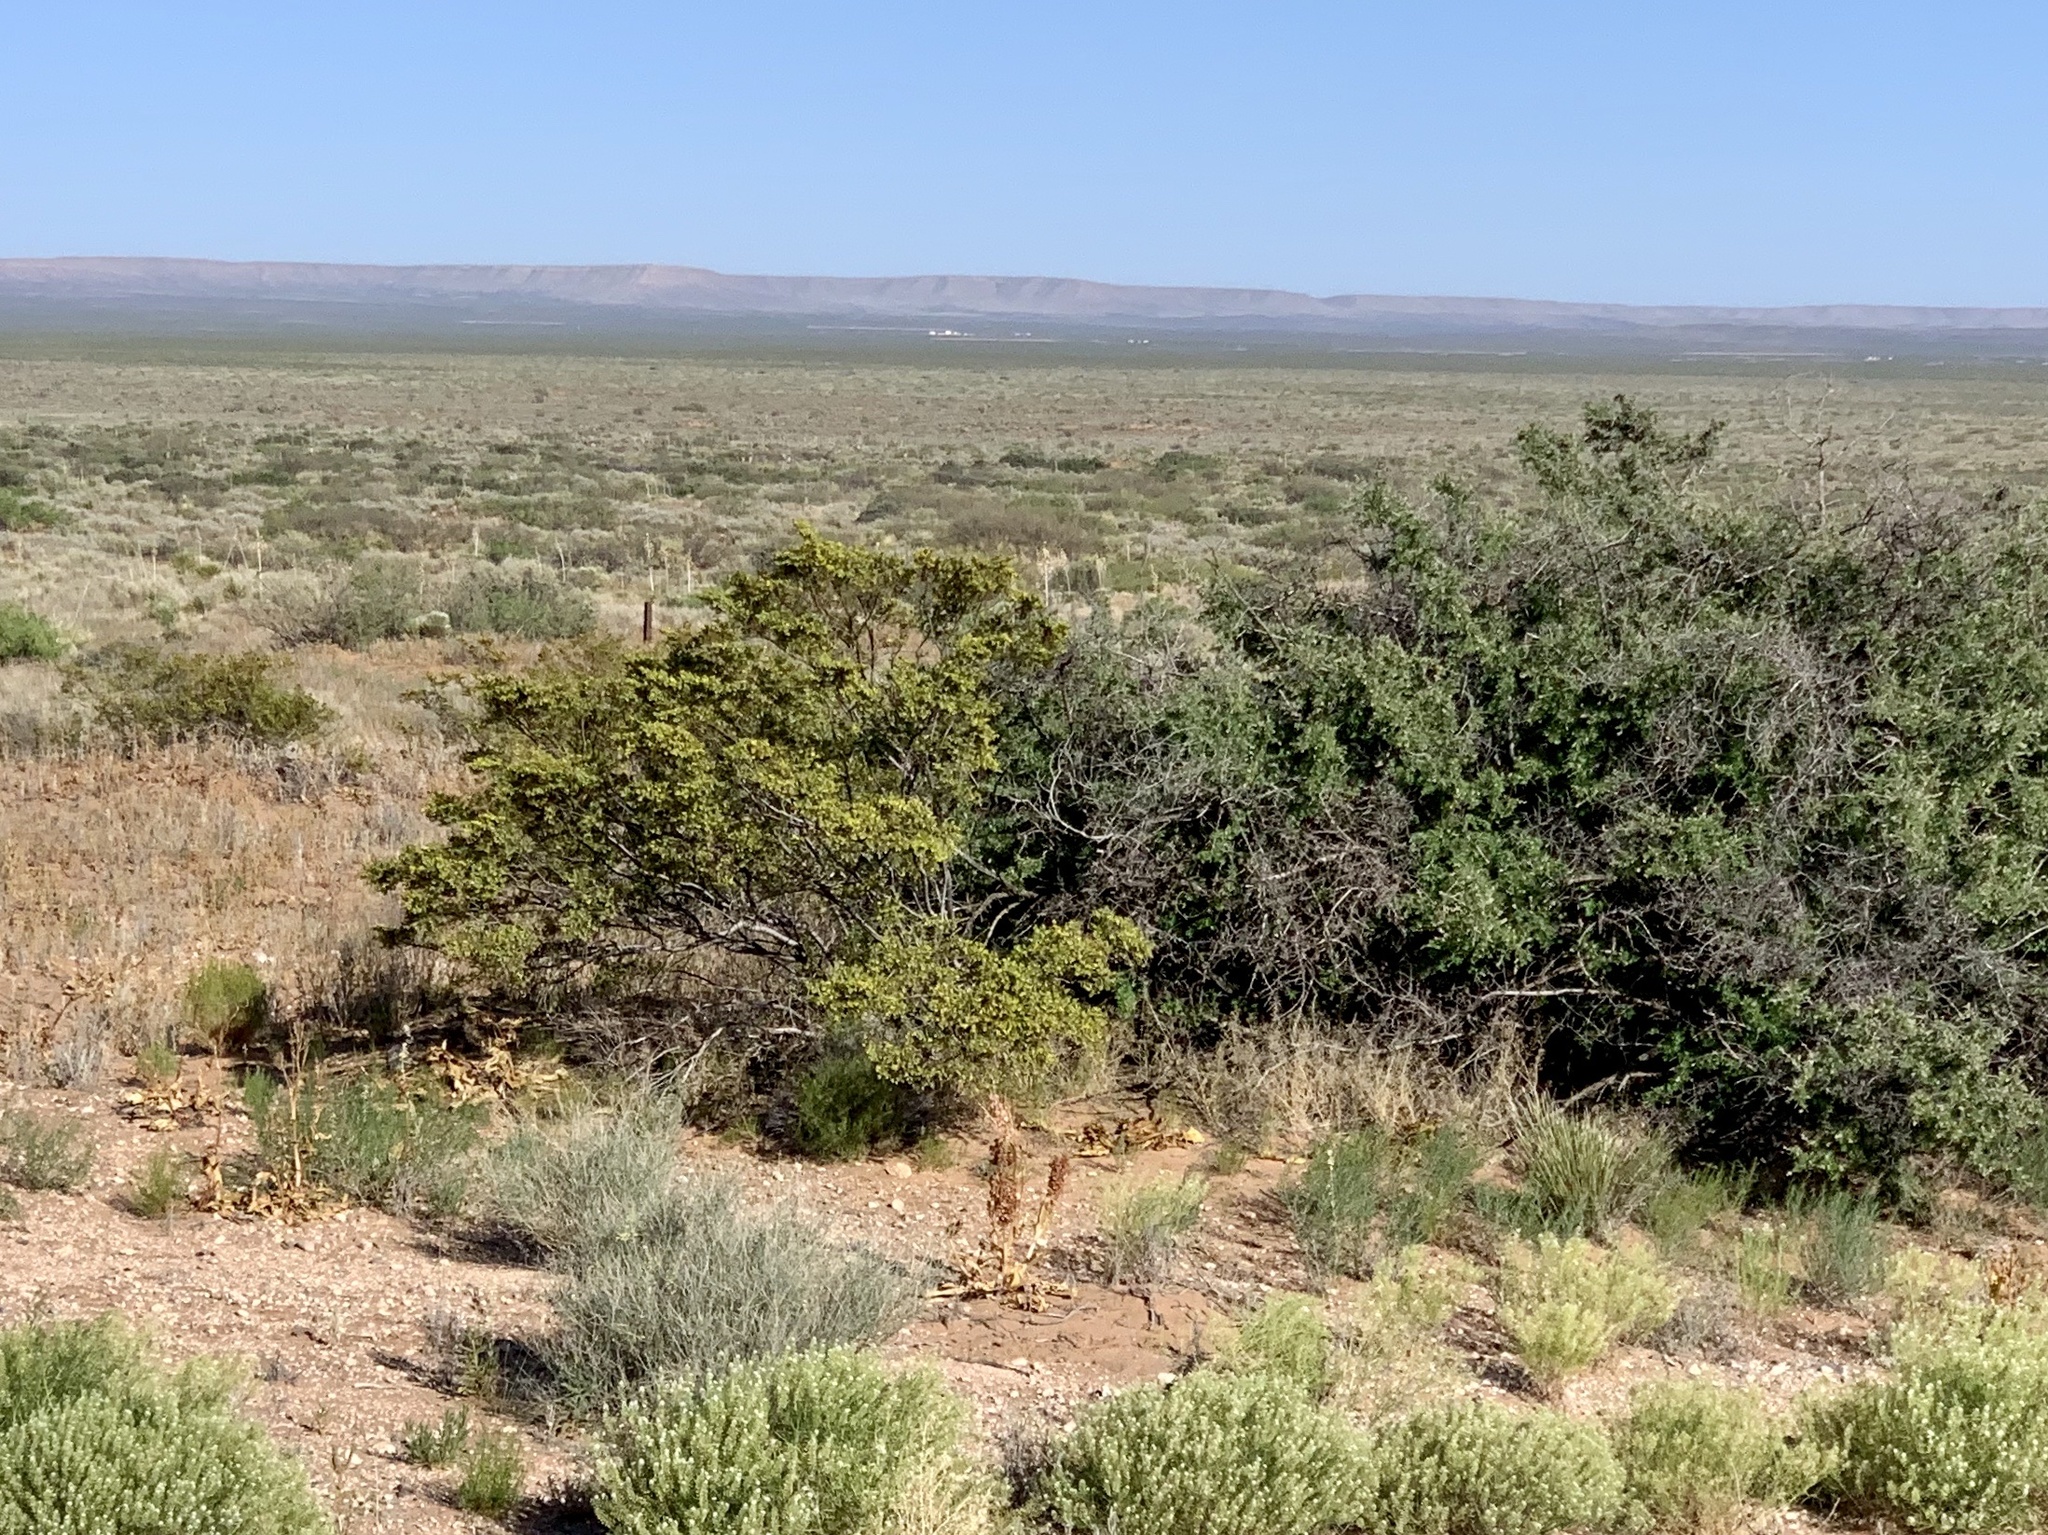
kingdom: Plantae
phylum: Tracheophyta
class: Magnoliopsida
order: Zygophyllales
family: Zygophyllaceae
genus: Larrea
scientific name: Larrea tridentata
